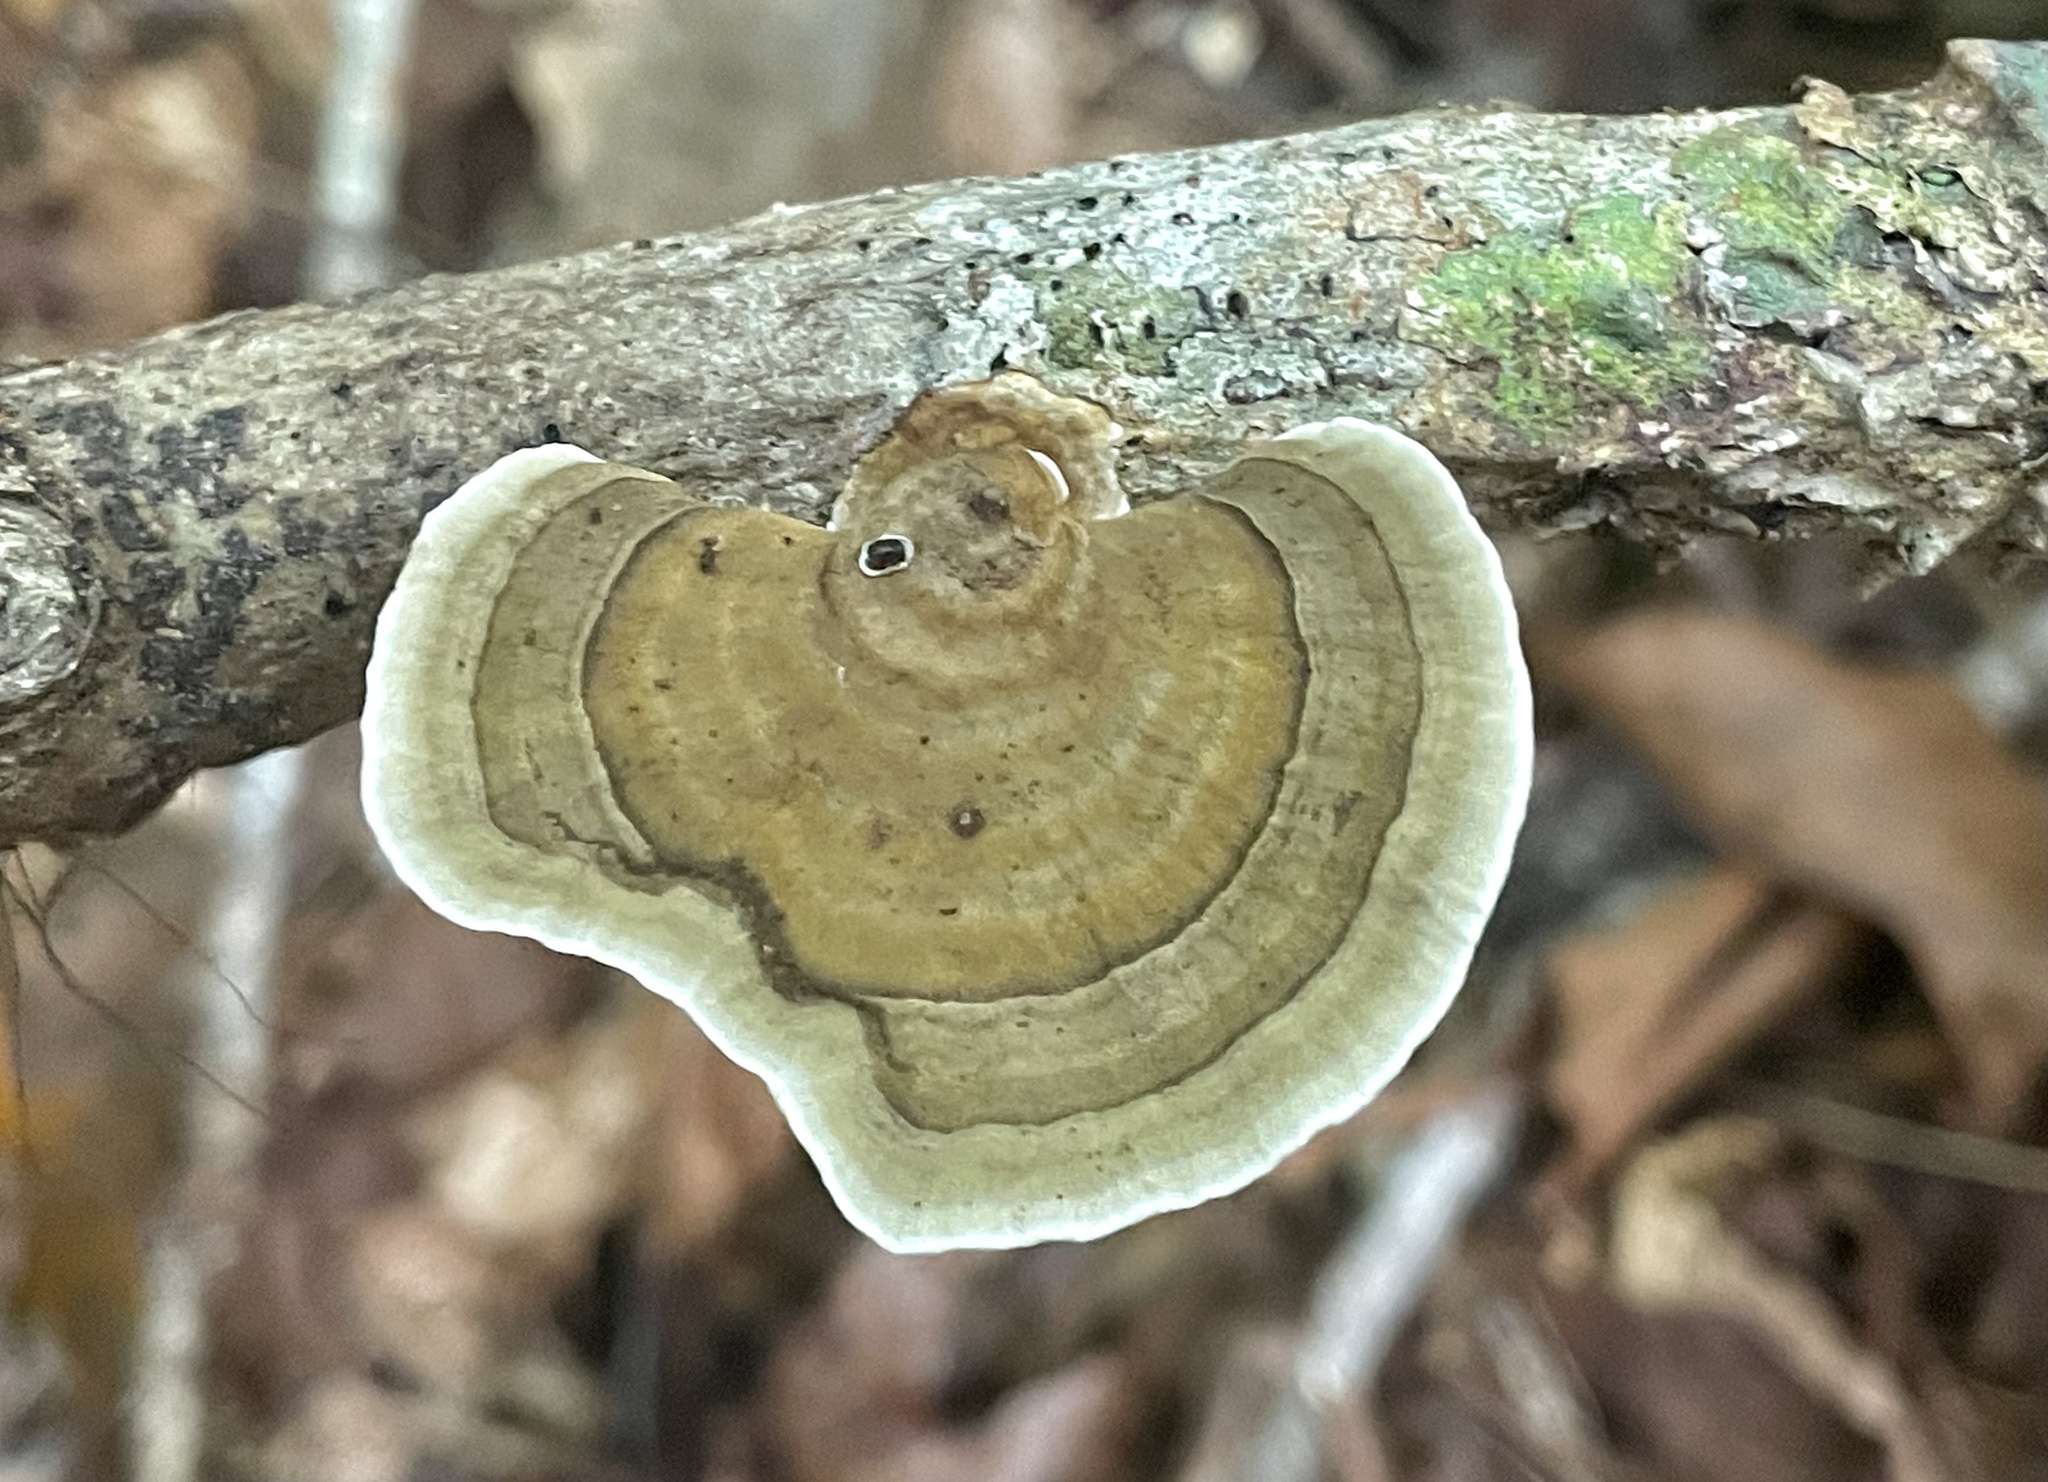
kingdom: Fungi
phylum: Basidiomycota
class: Agaricomycetes
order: Polyporales
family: Polyporaceae
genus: Daedaleopsis
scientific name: Daedaleopsis confragosa
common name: Blushing bracket
